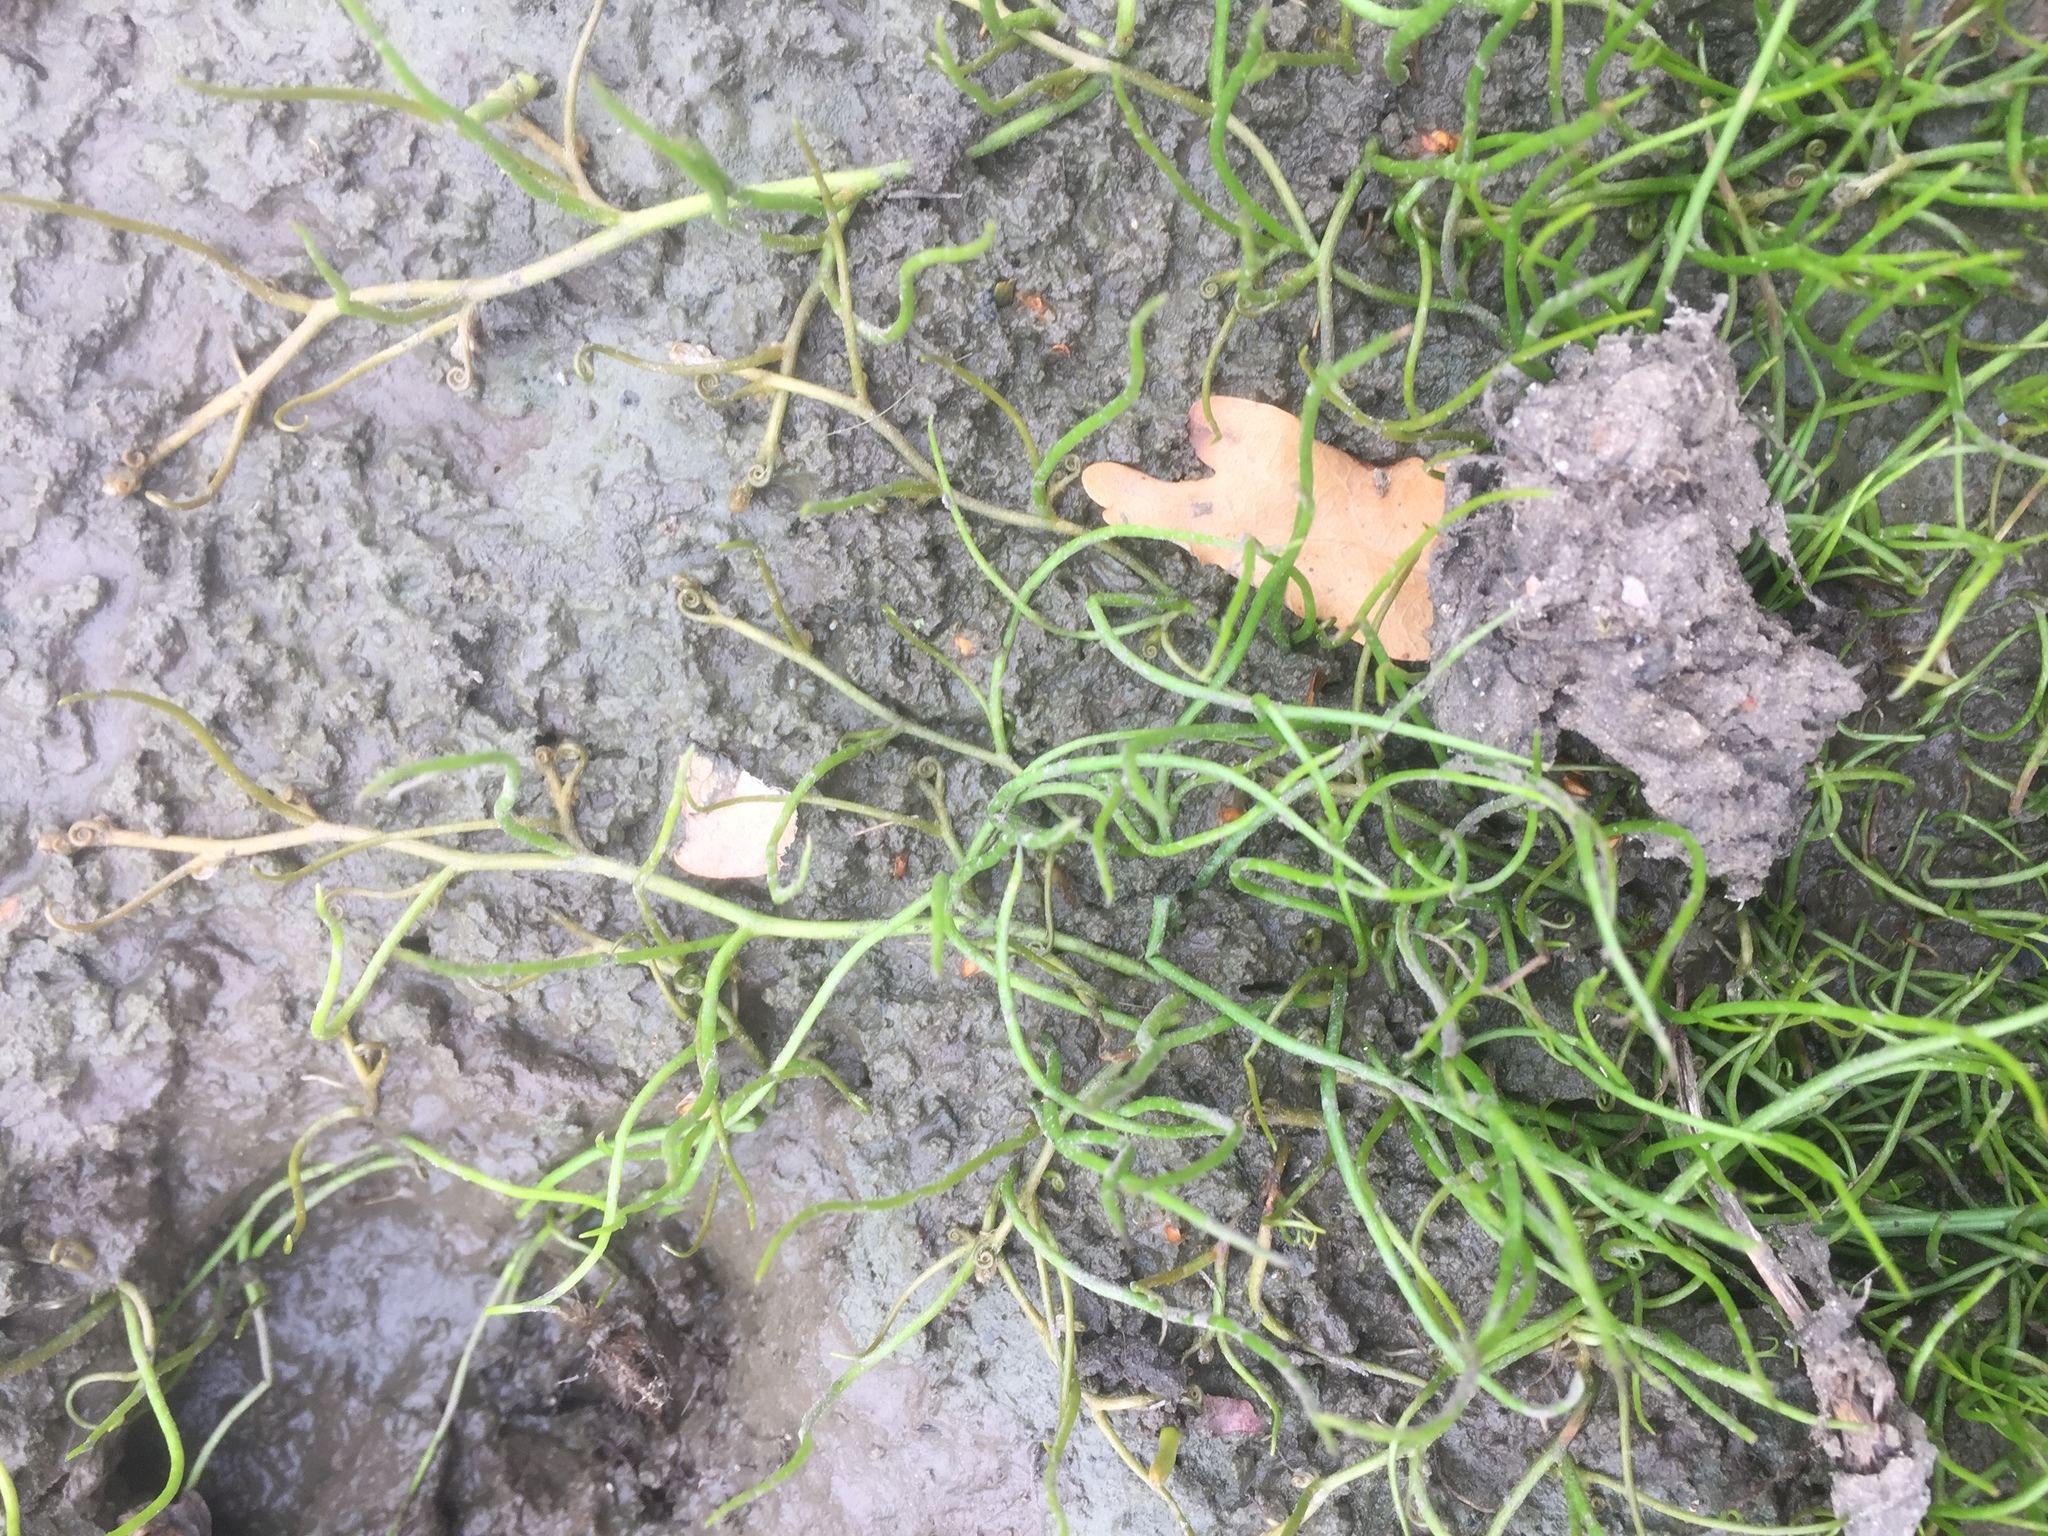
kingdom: Plantae
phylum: Tracheophyta
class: Polypodiopsida
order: Salviniales
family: Marsileaceae
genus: Pilularia
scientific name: Pilularia globulifera
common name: Pillwort
